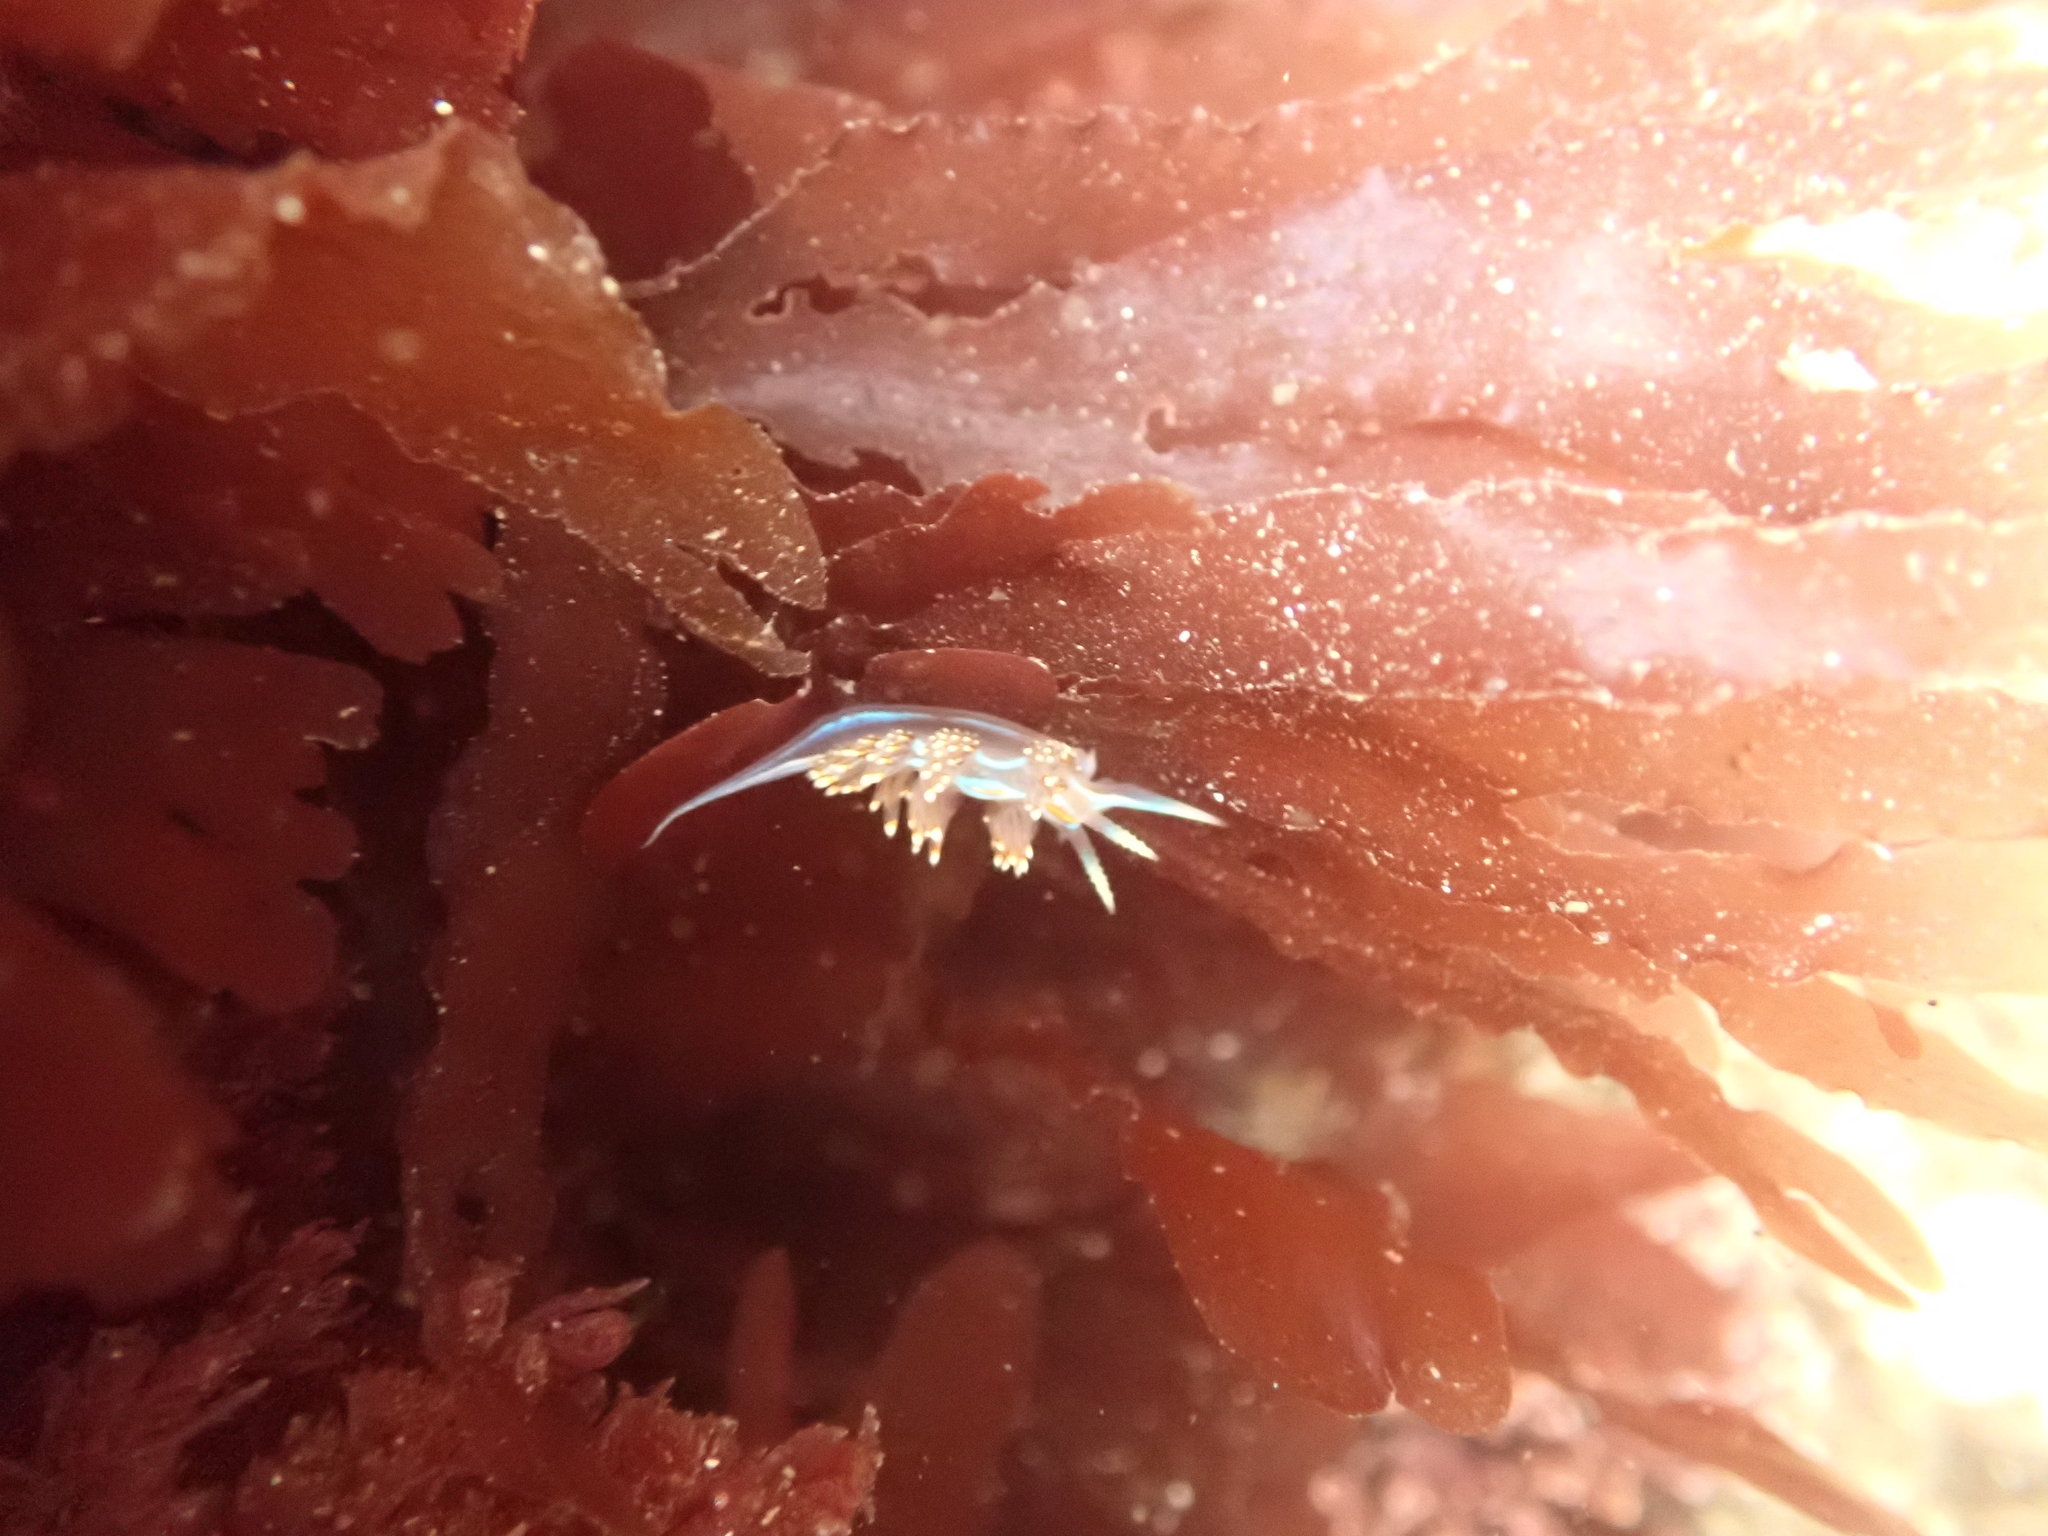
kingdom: Animalia
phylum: Mollusca
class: Gastropoda
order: Nudibranchia
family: Myrrhinidae
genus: Hermissenda
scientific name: Hermissenda opalescens
